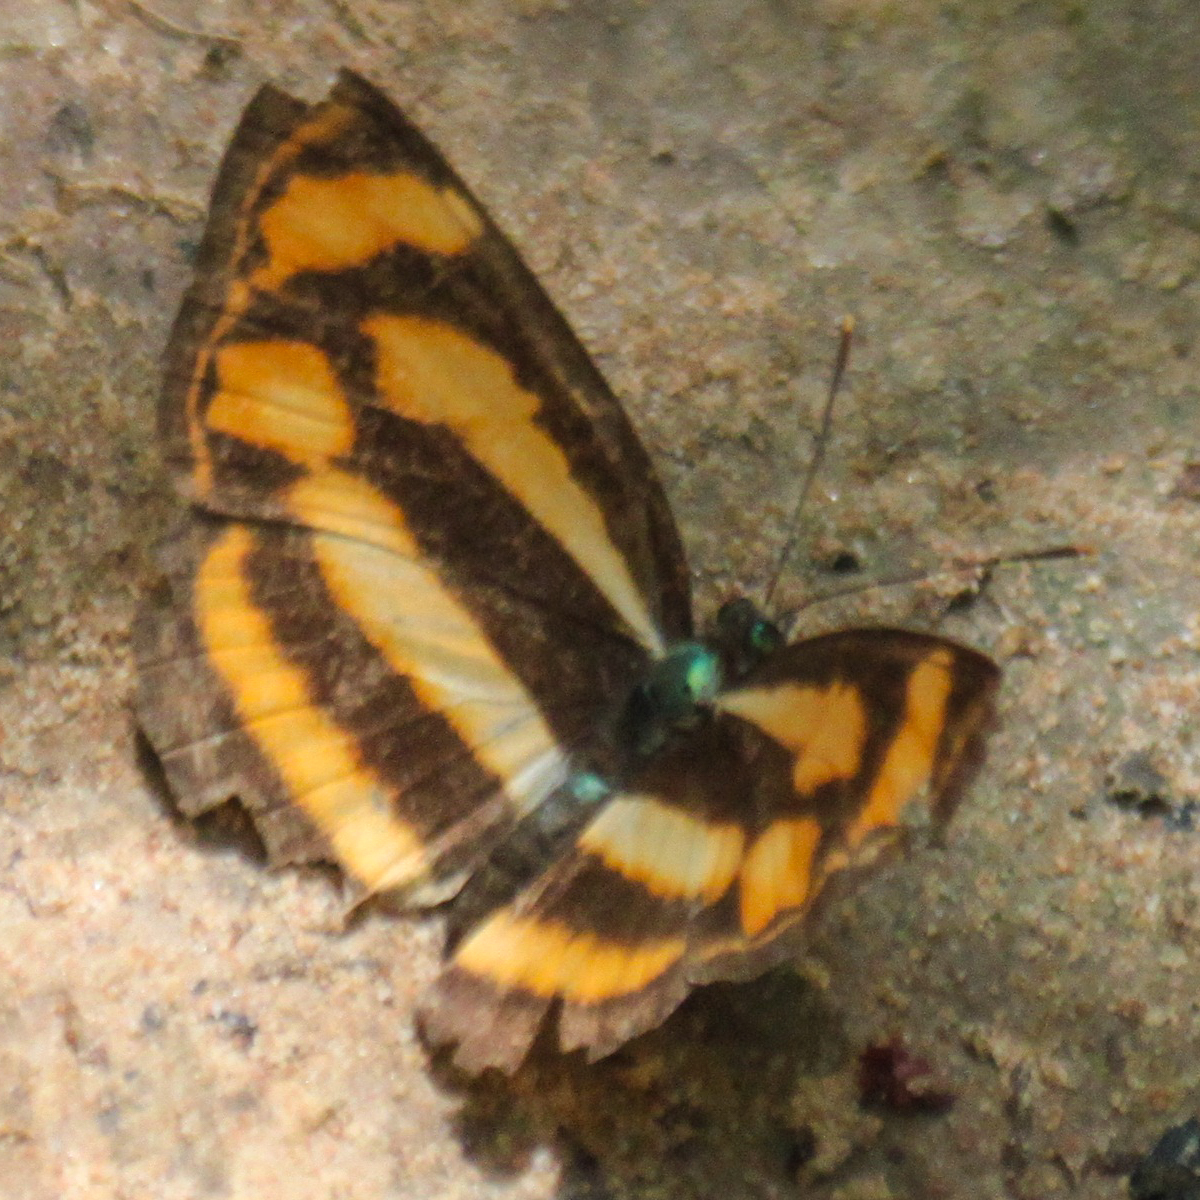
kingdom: Animalia
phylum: Arthropoda
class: Insecta
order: Lepidoptera
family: Nymphalidae
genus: Lasippa
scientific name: Lasippa
